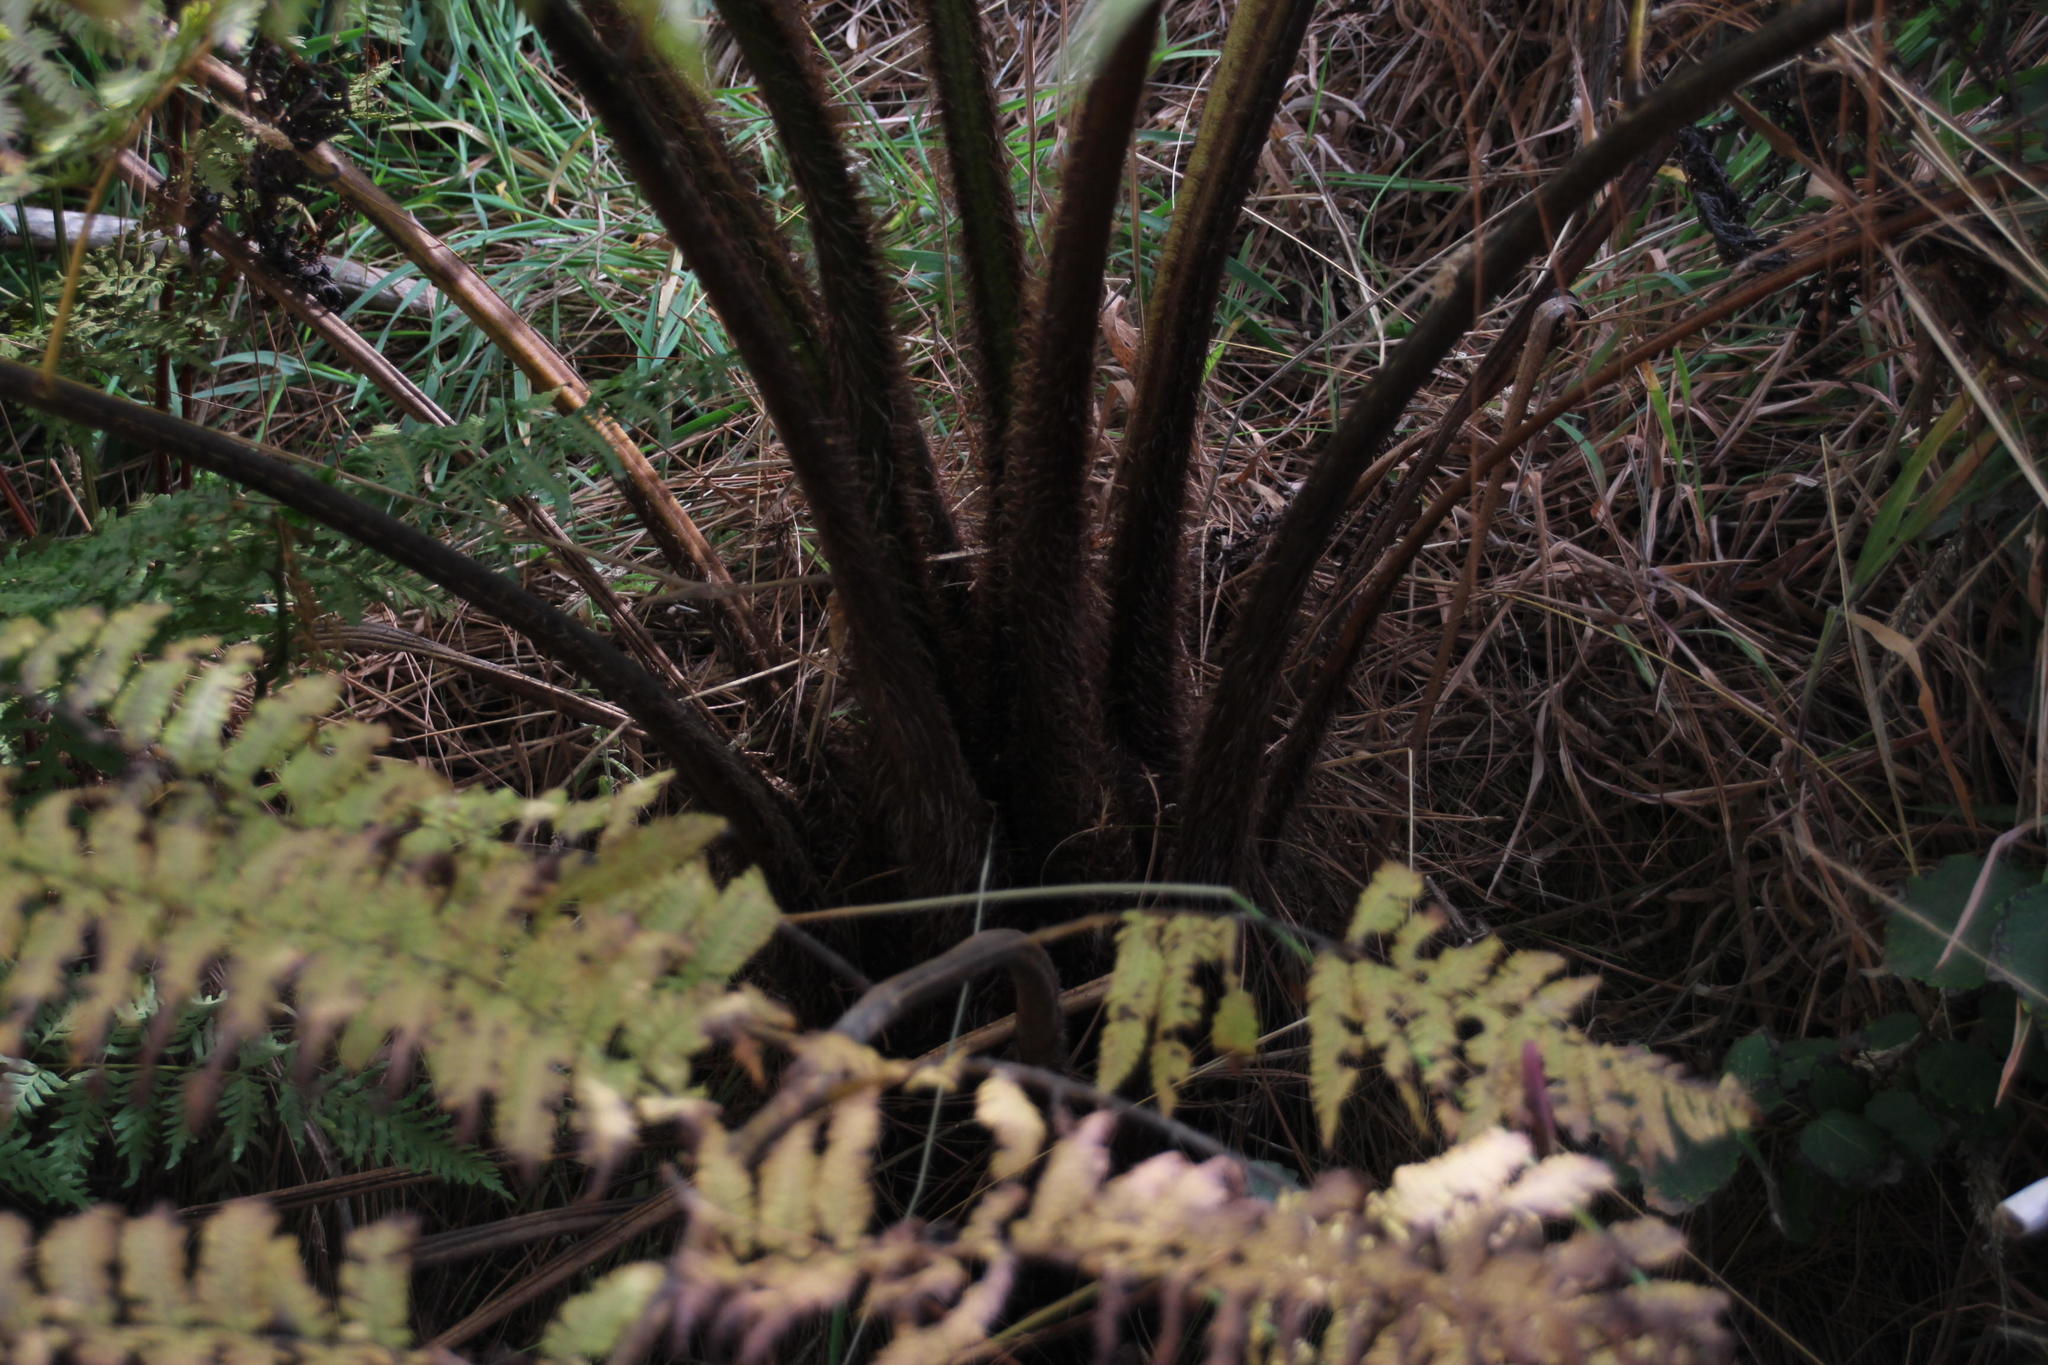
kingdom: Plantae
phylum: Tracheophyta
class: Polypodiopsida
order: Cyatheales
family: Cyatheaceae
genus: Sphaeropteris
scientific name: Sphaeropteris cooperi
